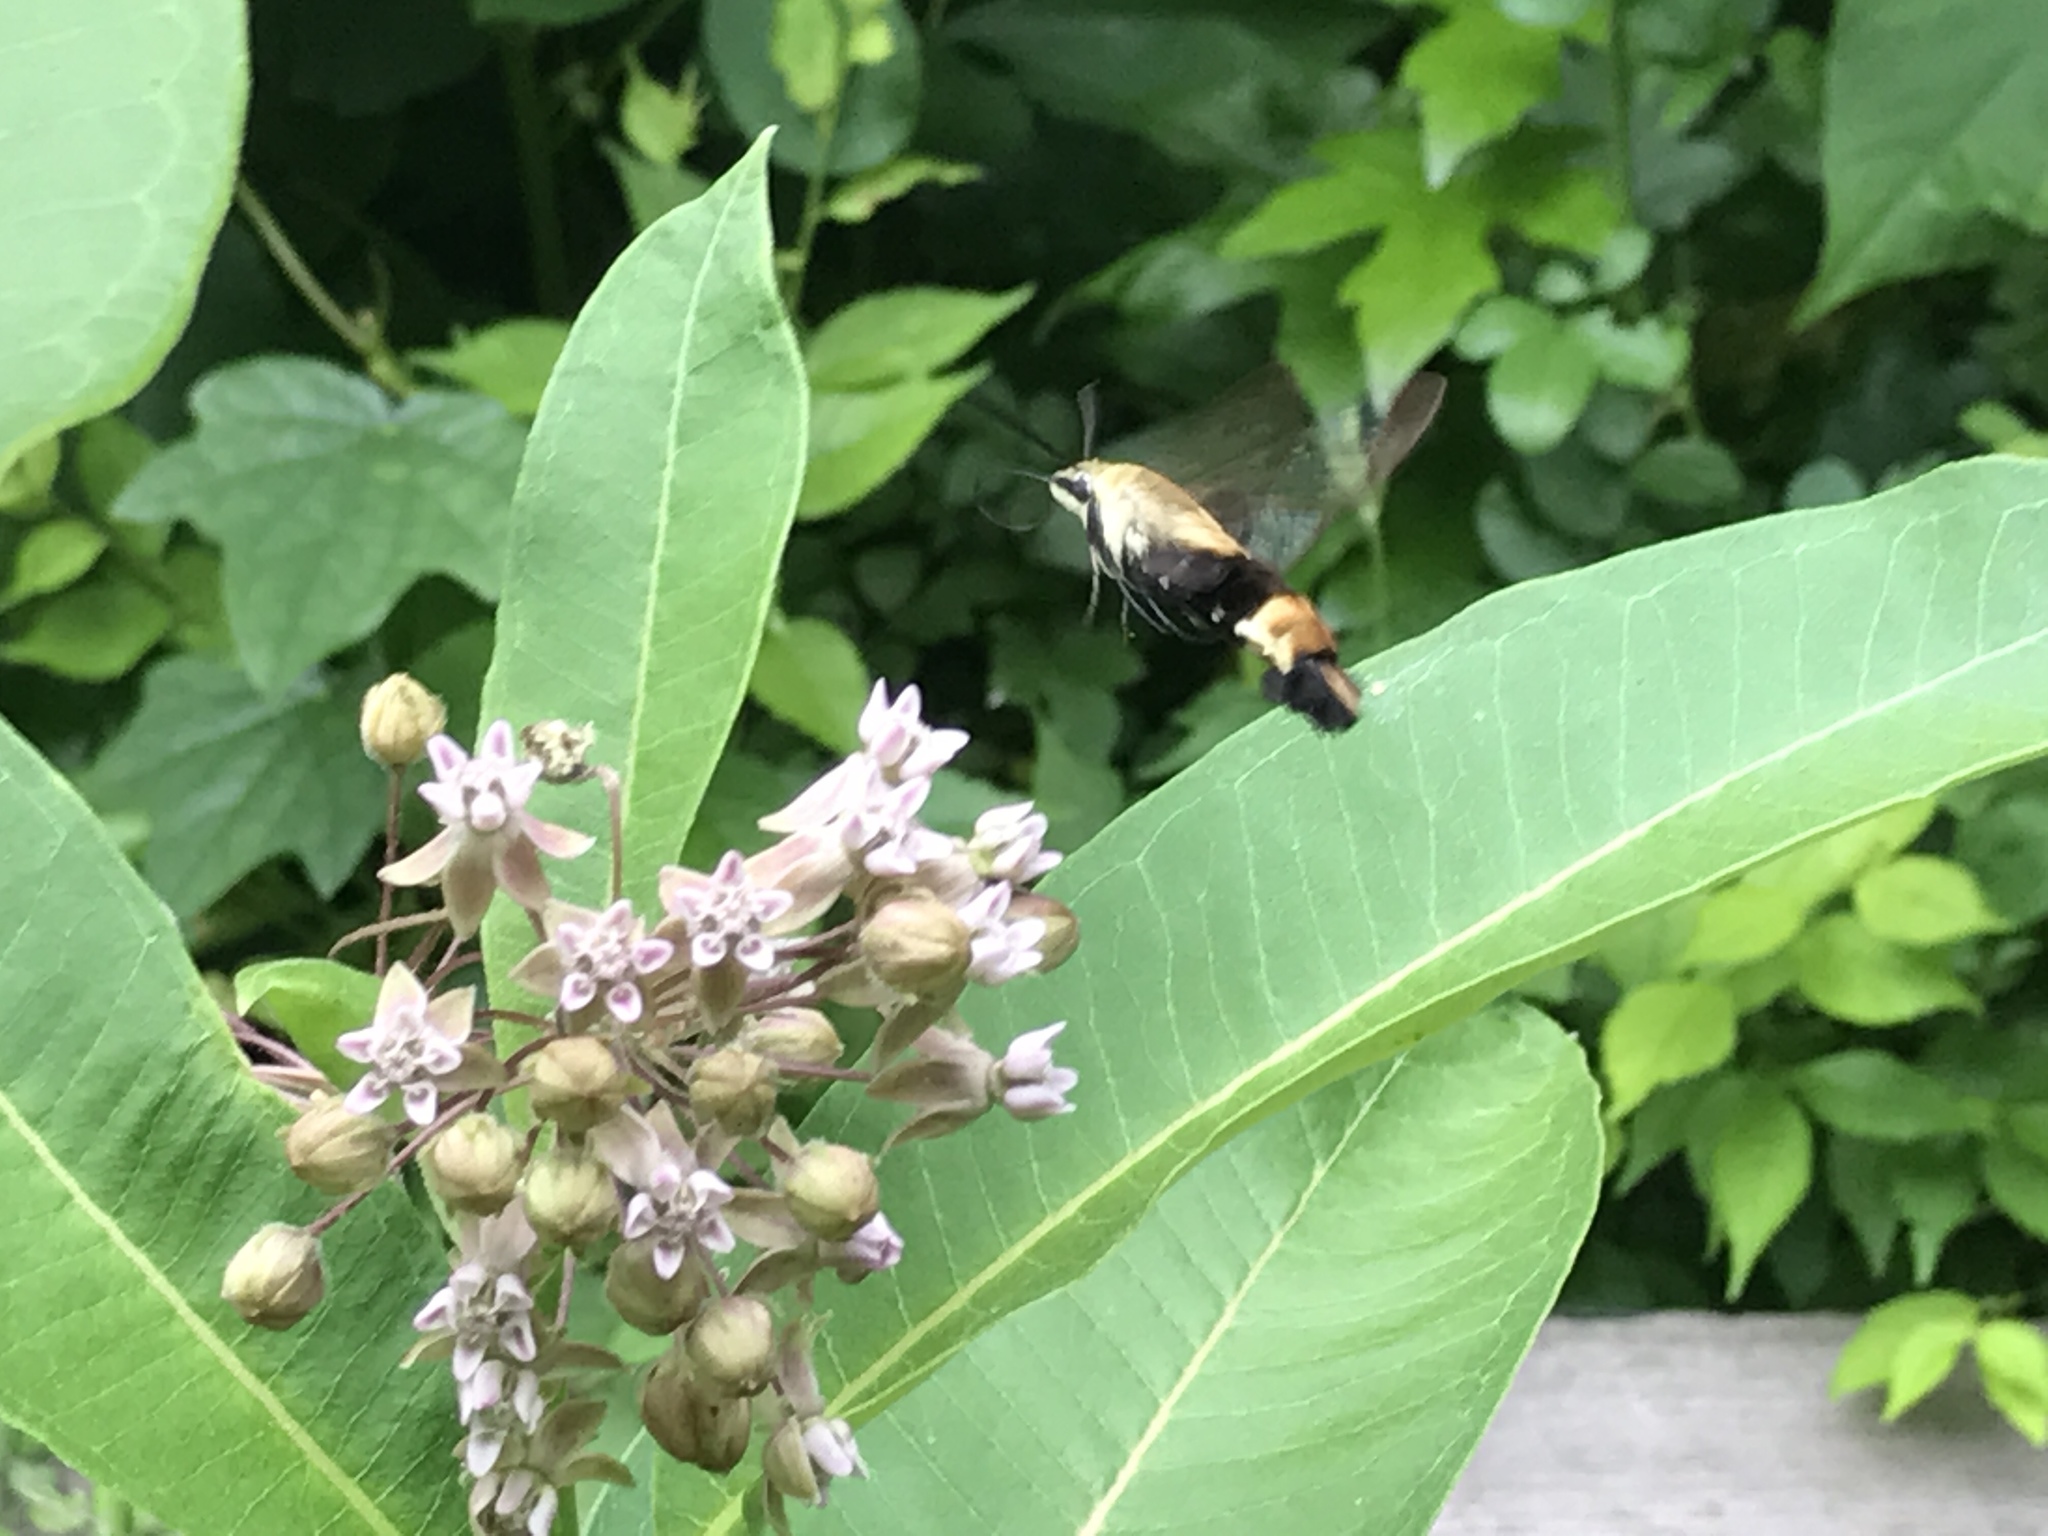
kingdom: Animalia
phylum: Arthropoda
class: Insecta
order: Lepidoptera
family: Sphingidae
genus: Hemaris
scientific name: Hemaris diffinis
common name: Bumblebee moth
